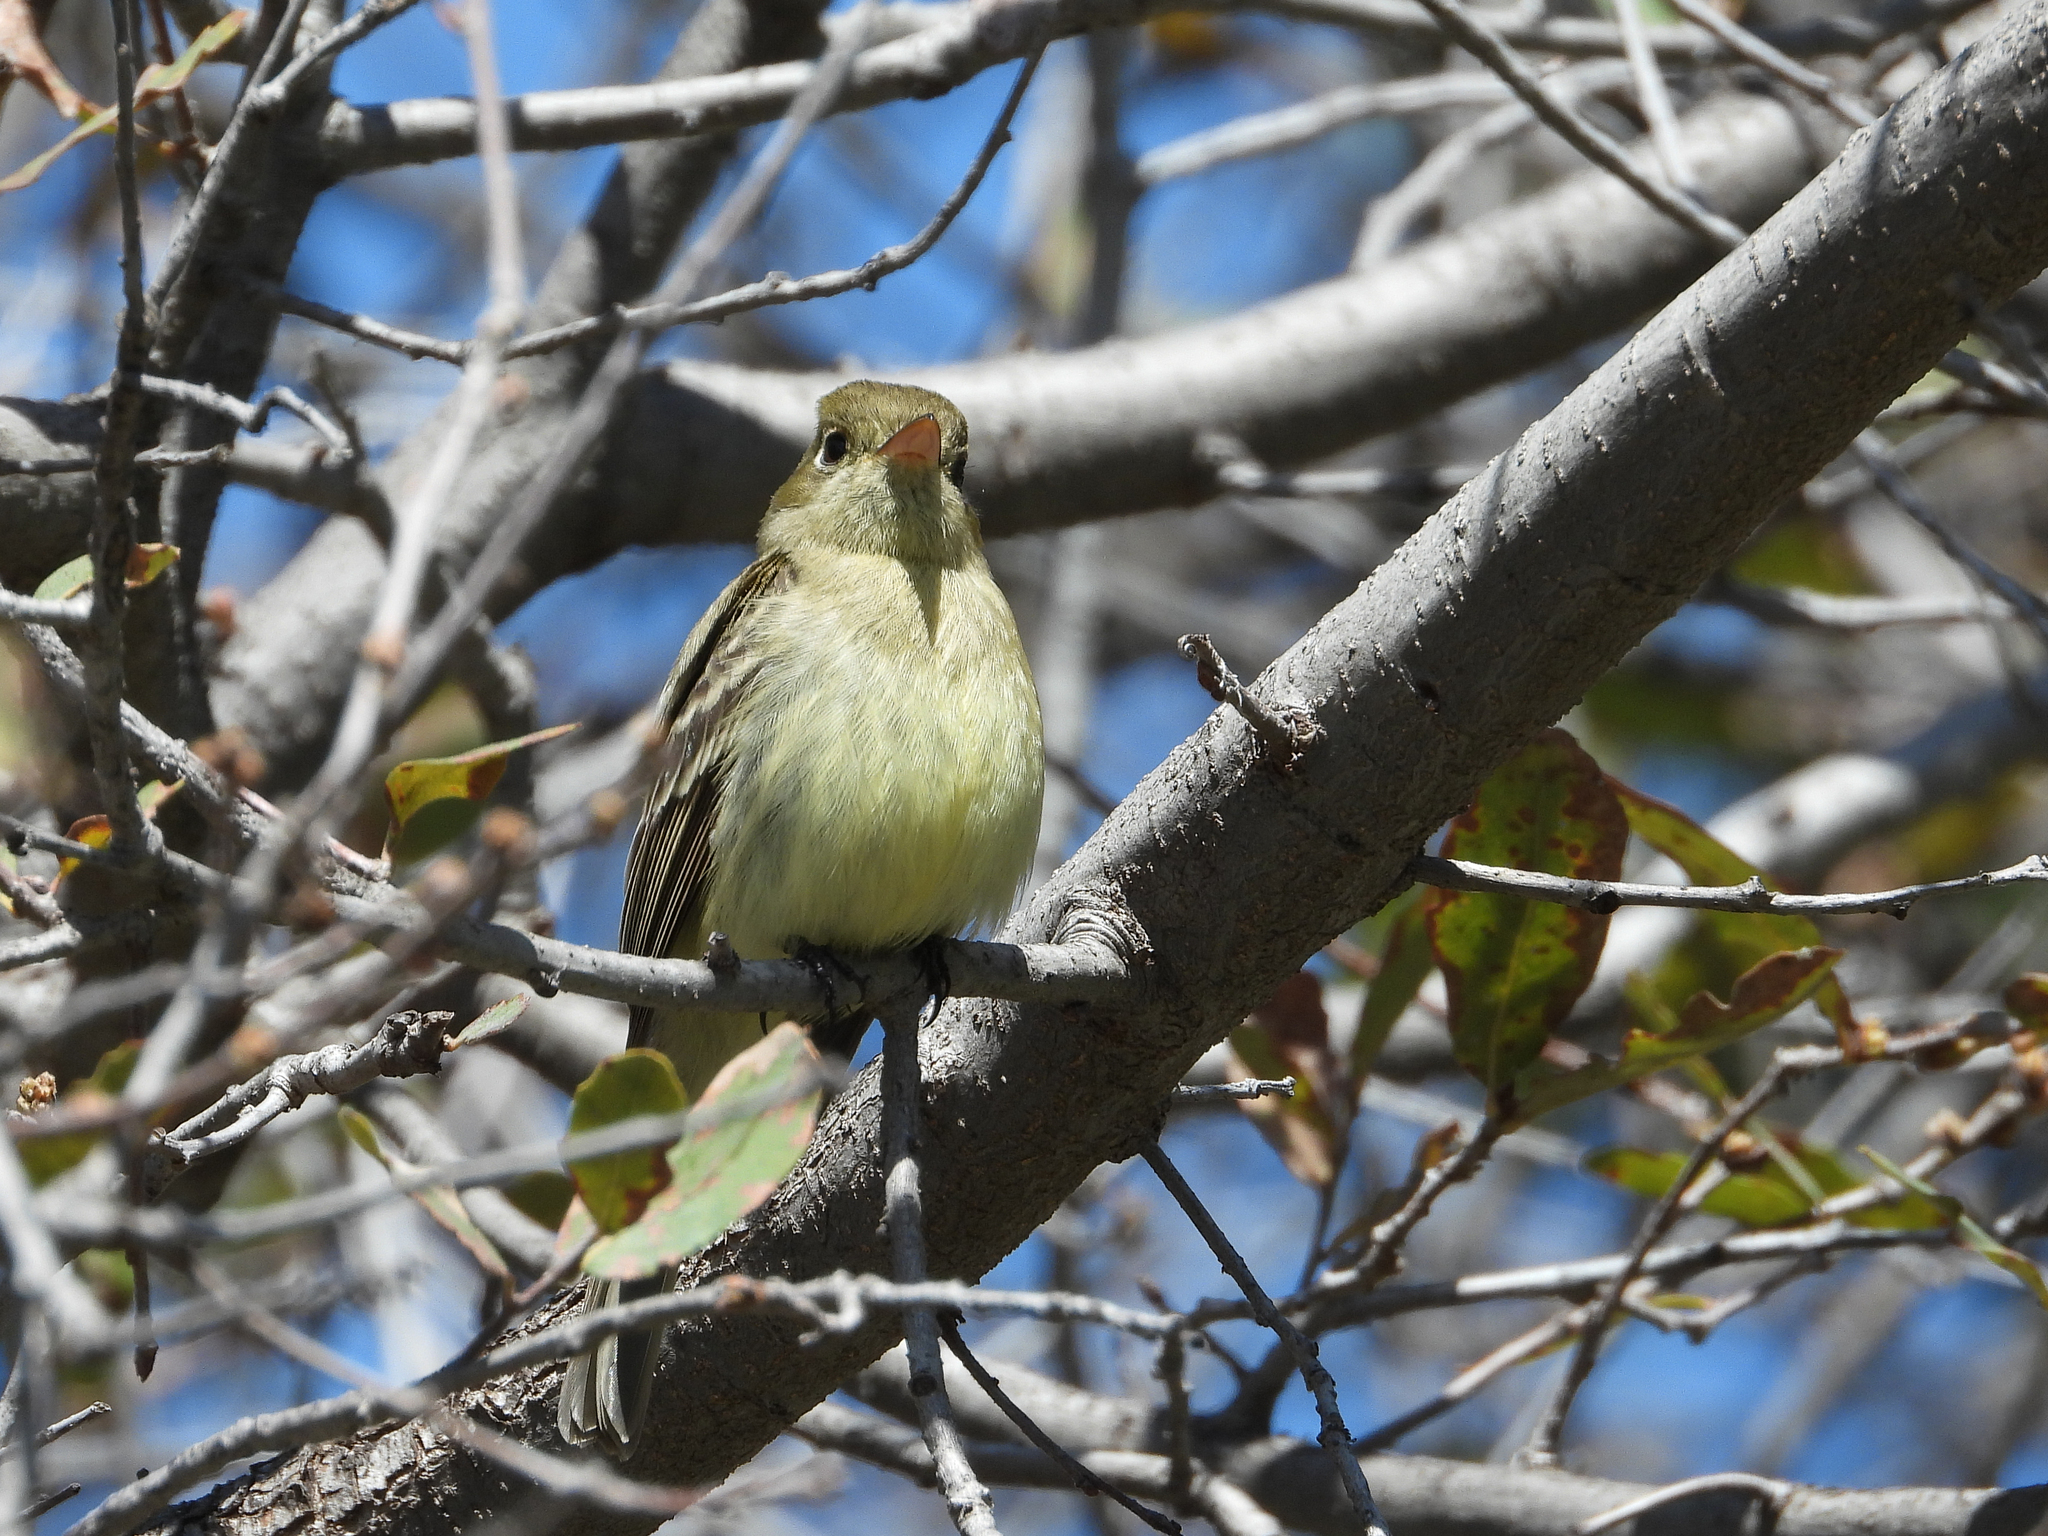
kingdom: Animalia
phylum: Chordata
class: Aves
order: Passeriformes
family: Tyrannidae
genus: Empidonax
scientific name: Empidonax difficilis
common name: Pacific-slope flycatcher
